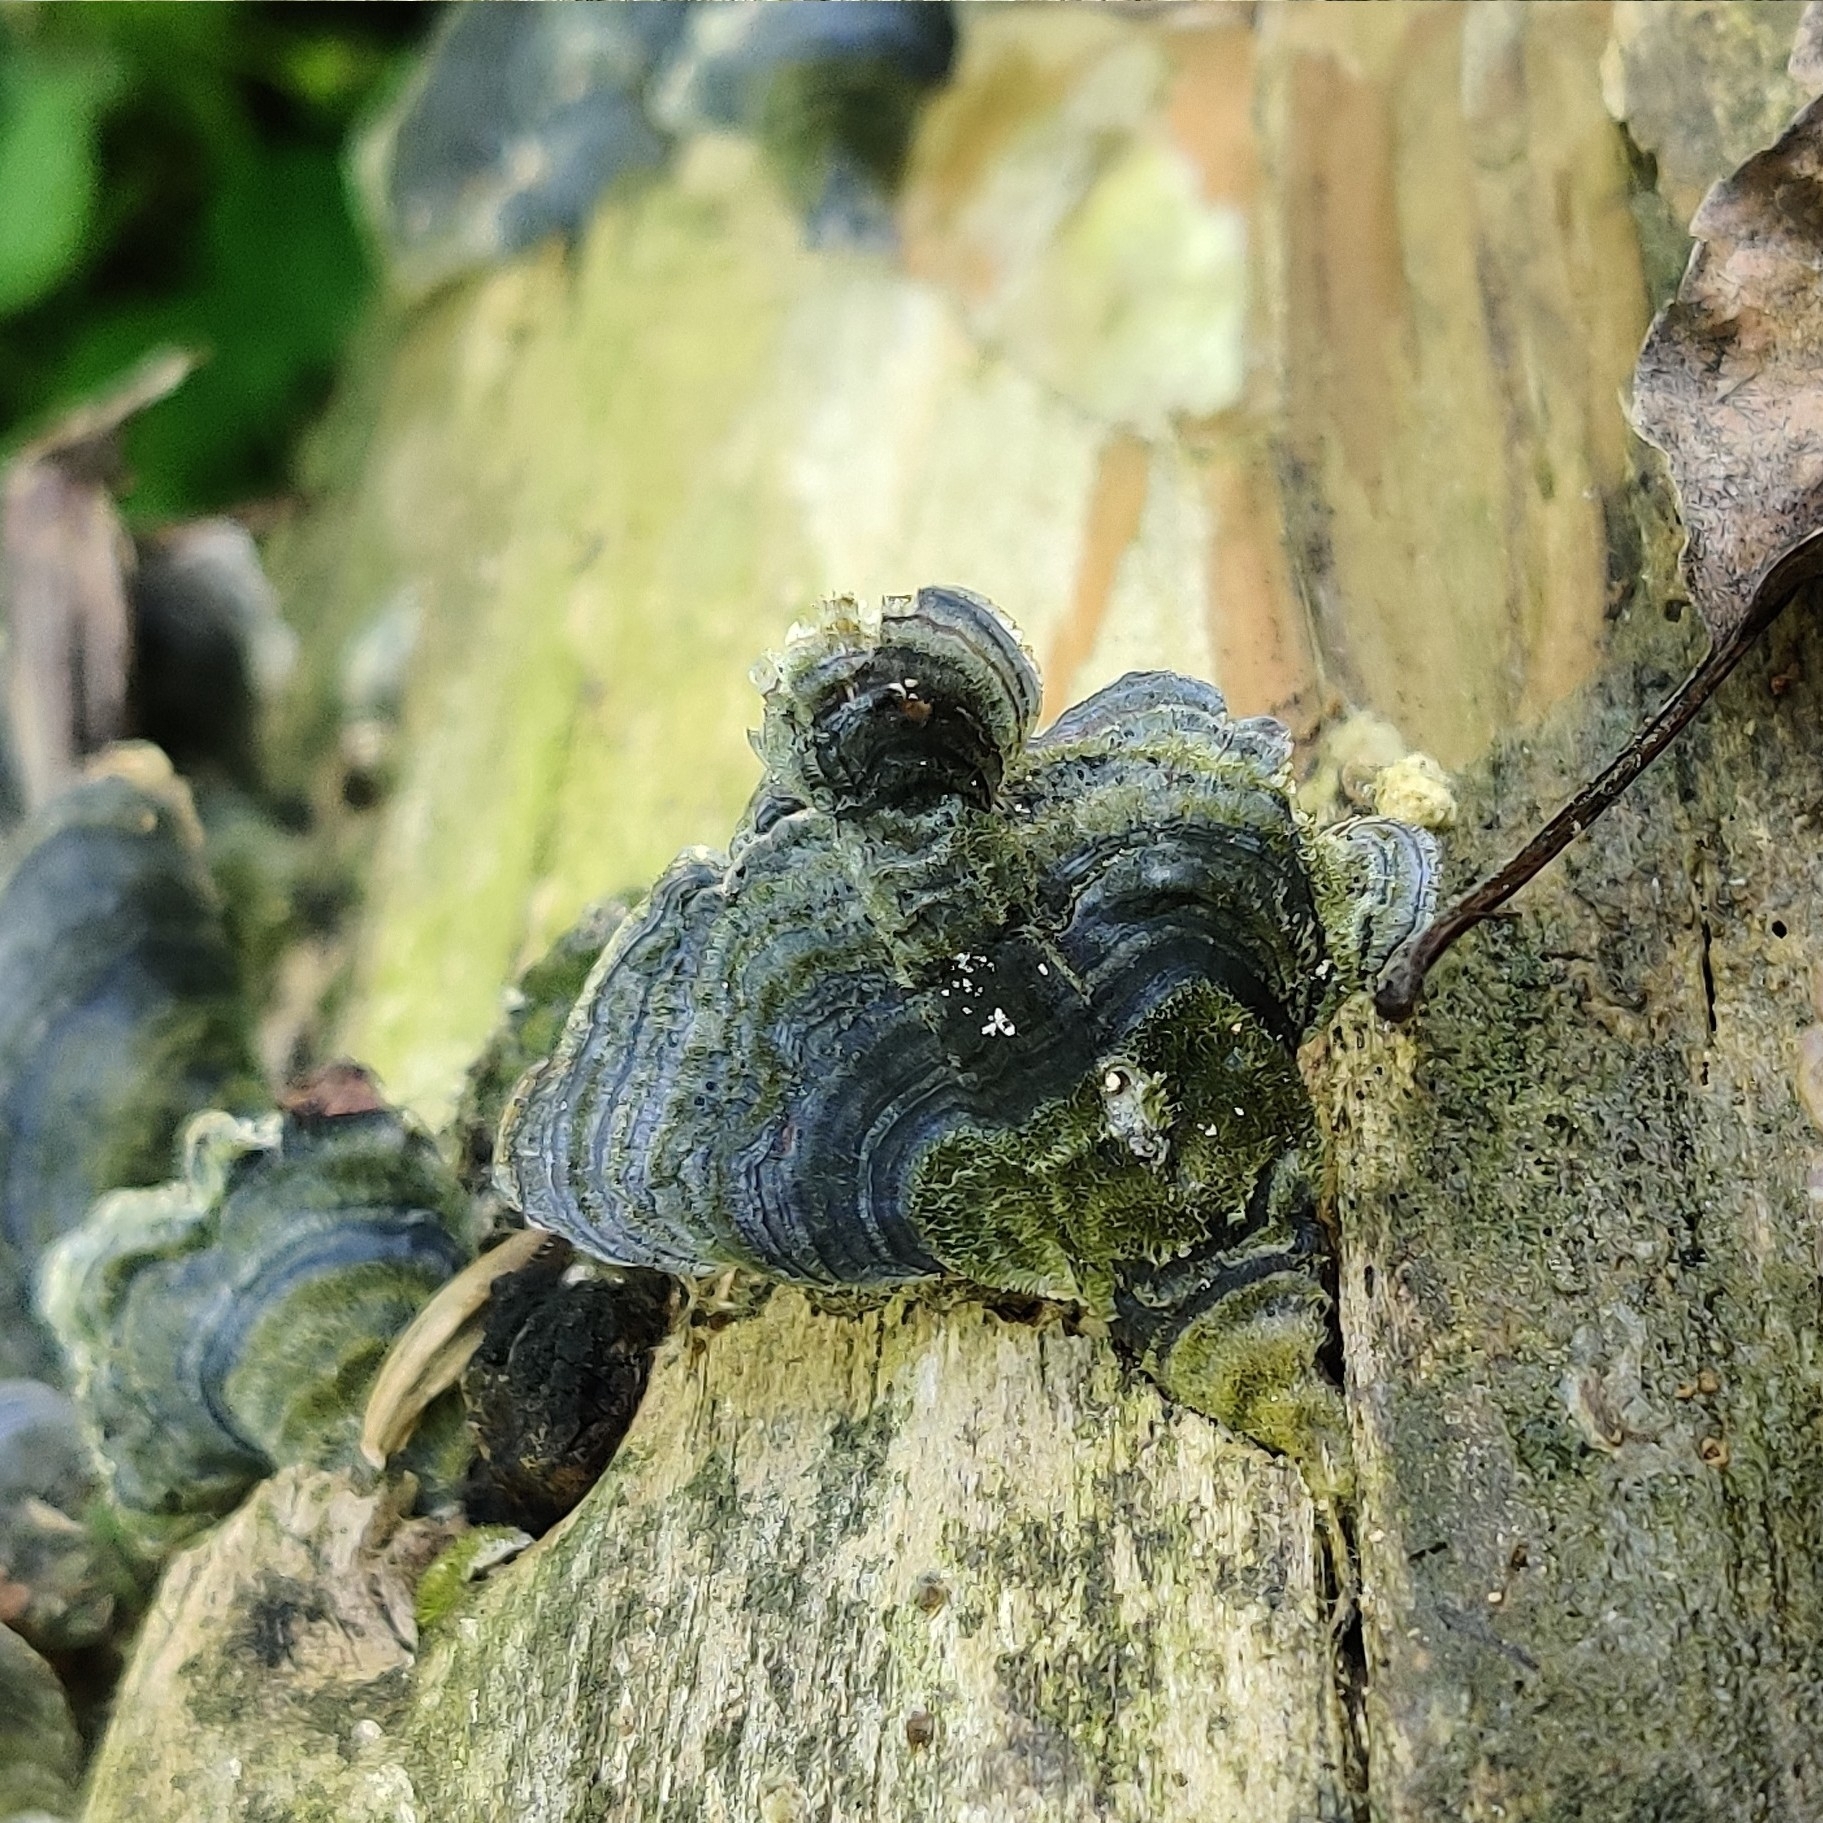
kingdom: Fungi
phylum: Basidiomycota
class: Agaricomycetes
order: Polyporales
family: Polyporaceae
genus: Trametes
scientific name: Trametes versicolor
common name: Turkeytail
